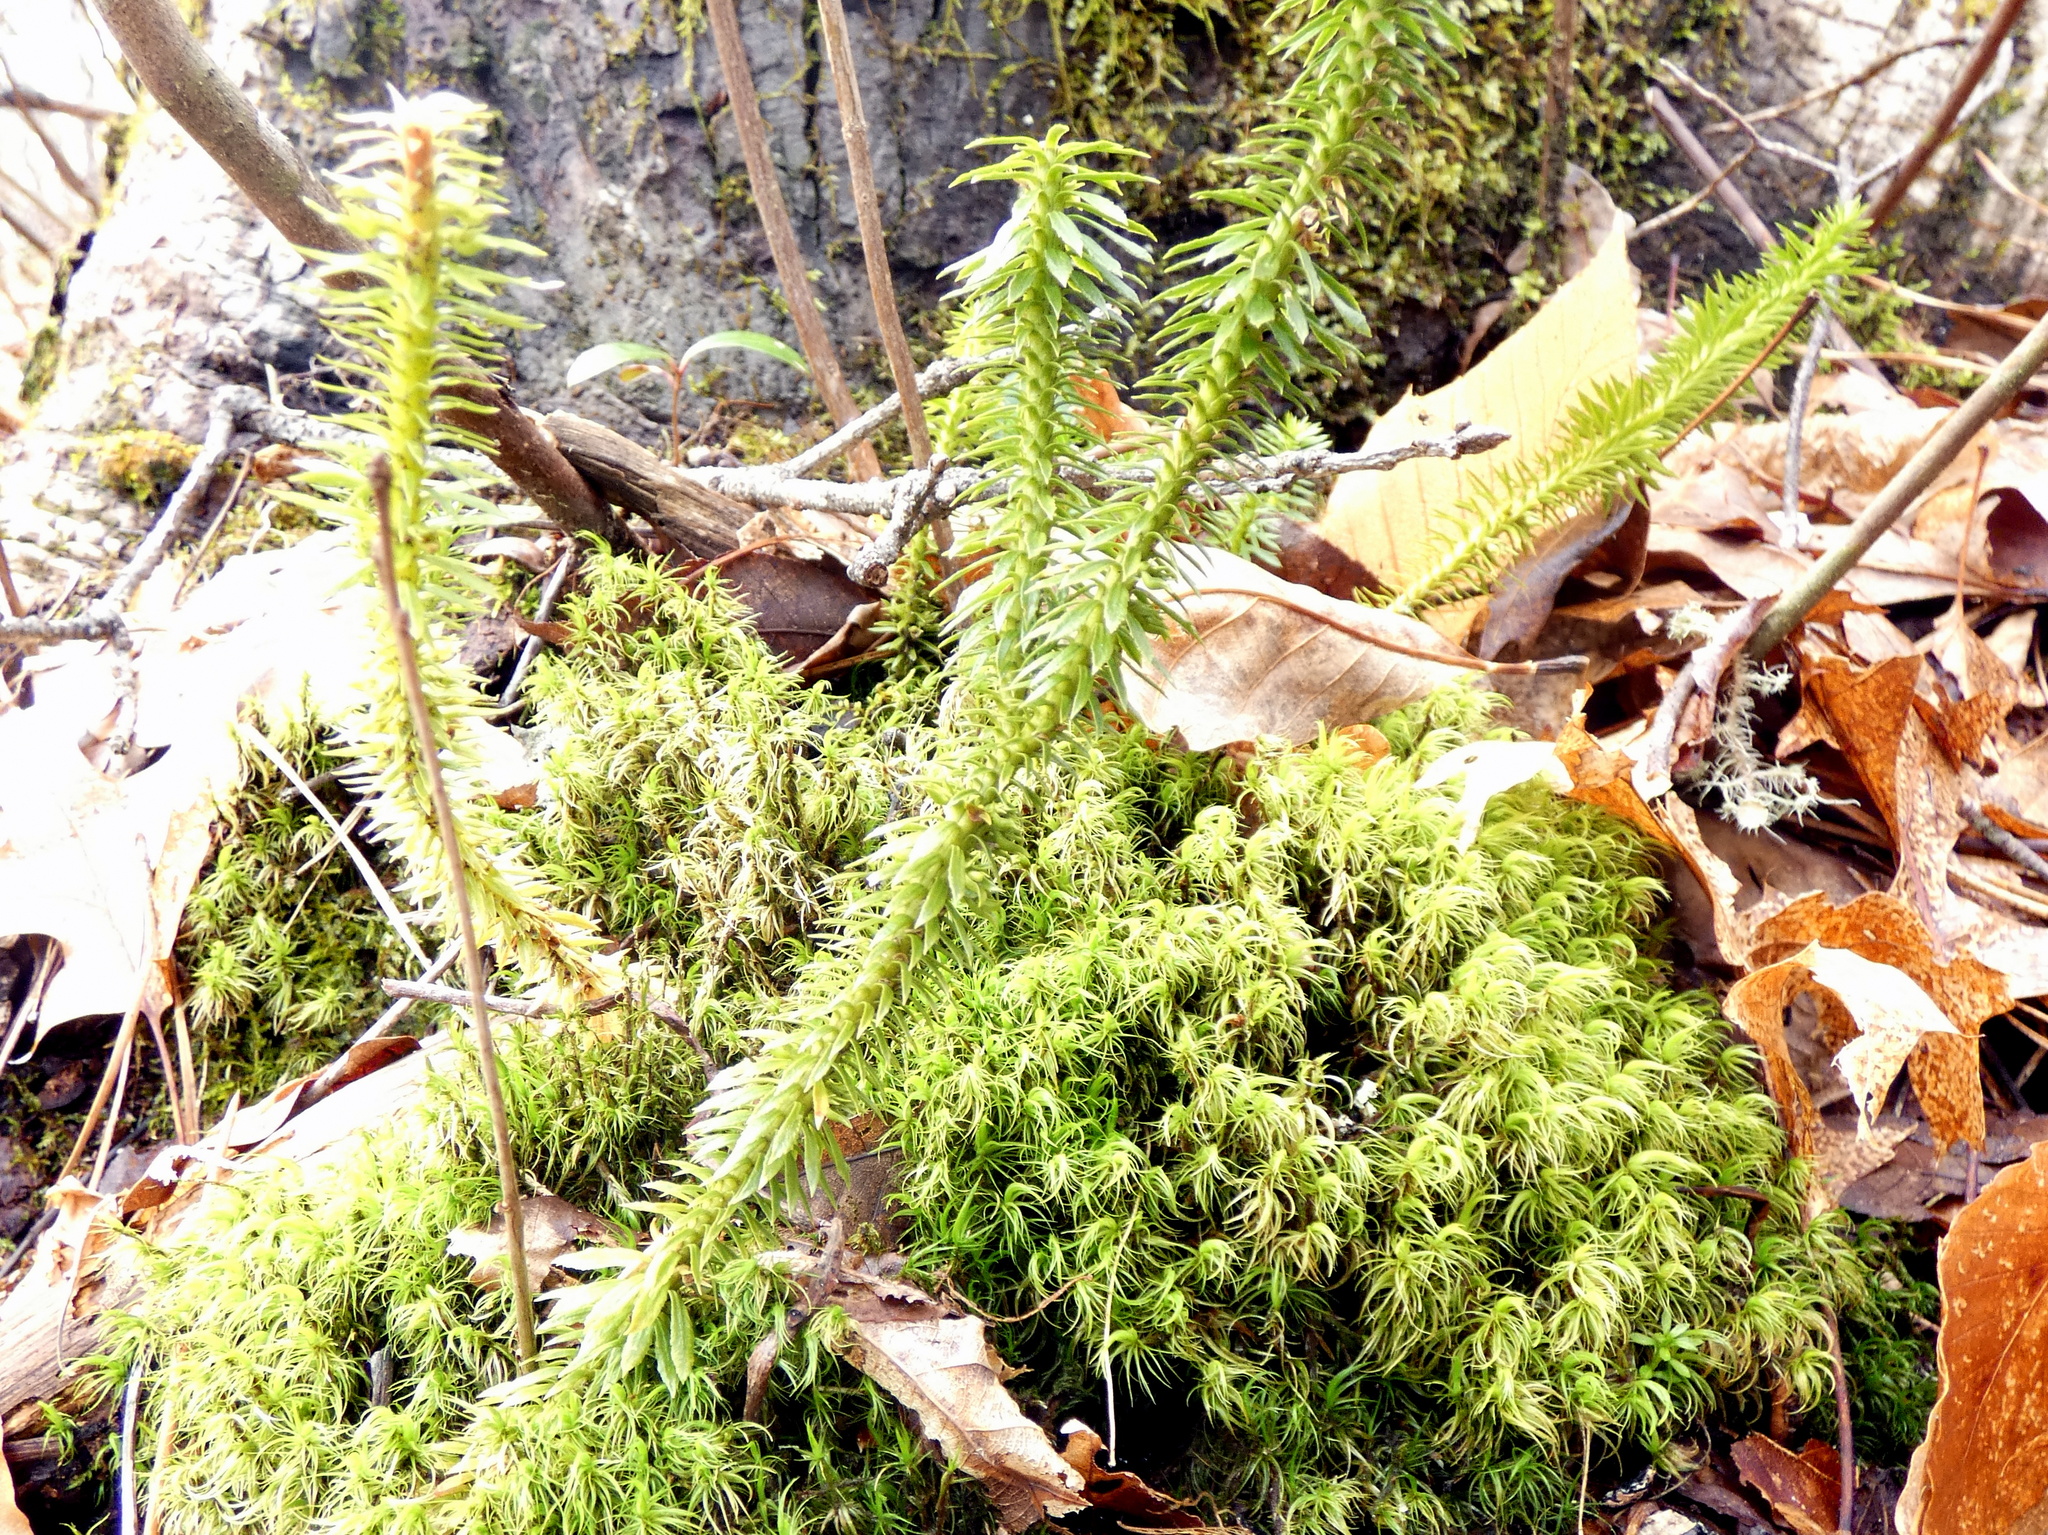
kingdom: Plantae
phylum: Tracheophyta
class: Lycopodiopsida
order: Lycopodiales
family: Lycopodiaceae
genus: Huperzia
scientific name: Huperzia lucidula
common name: Shining clubmoss
